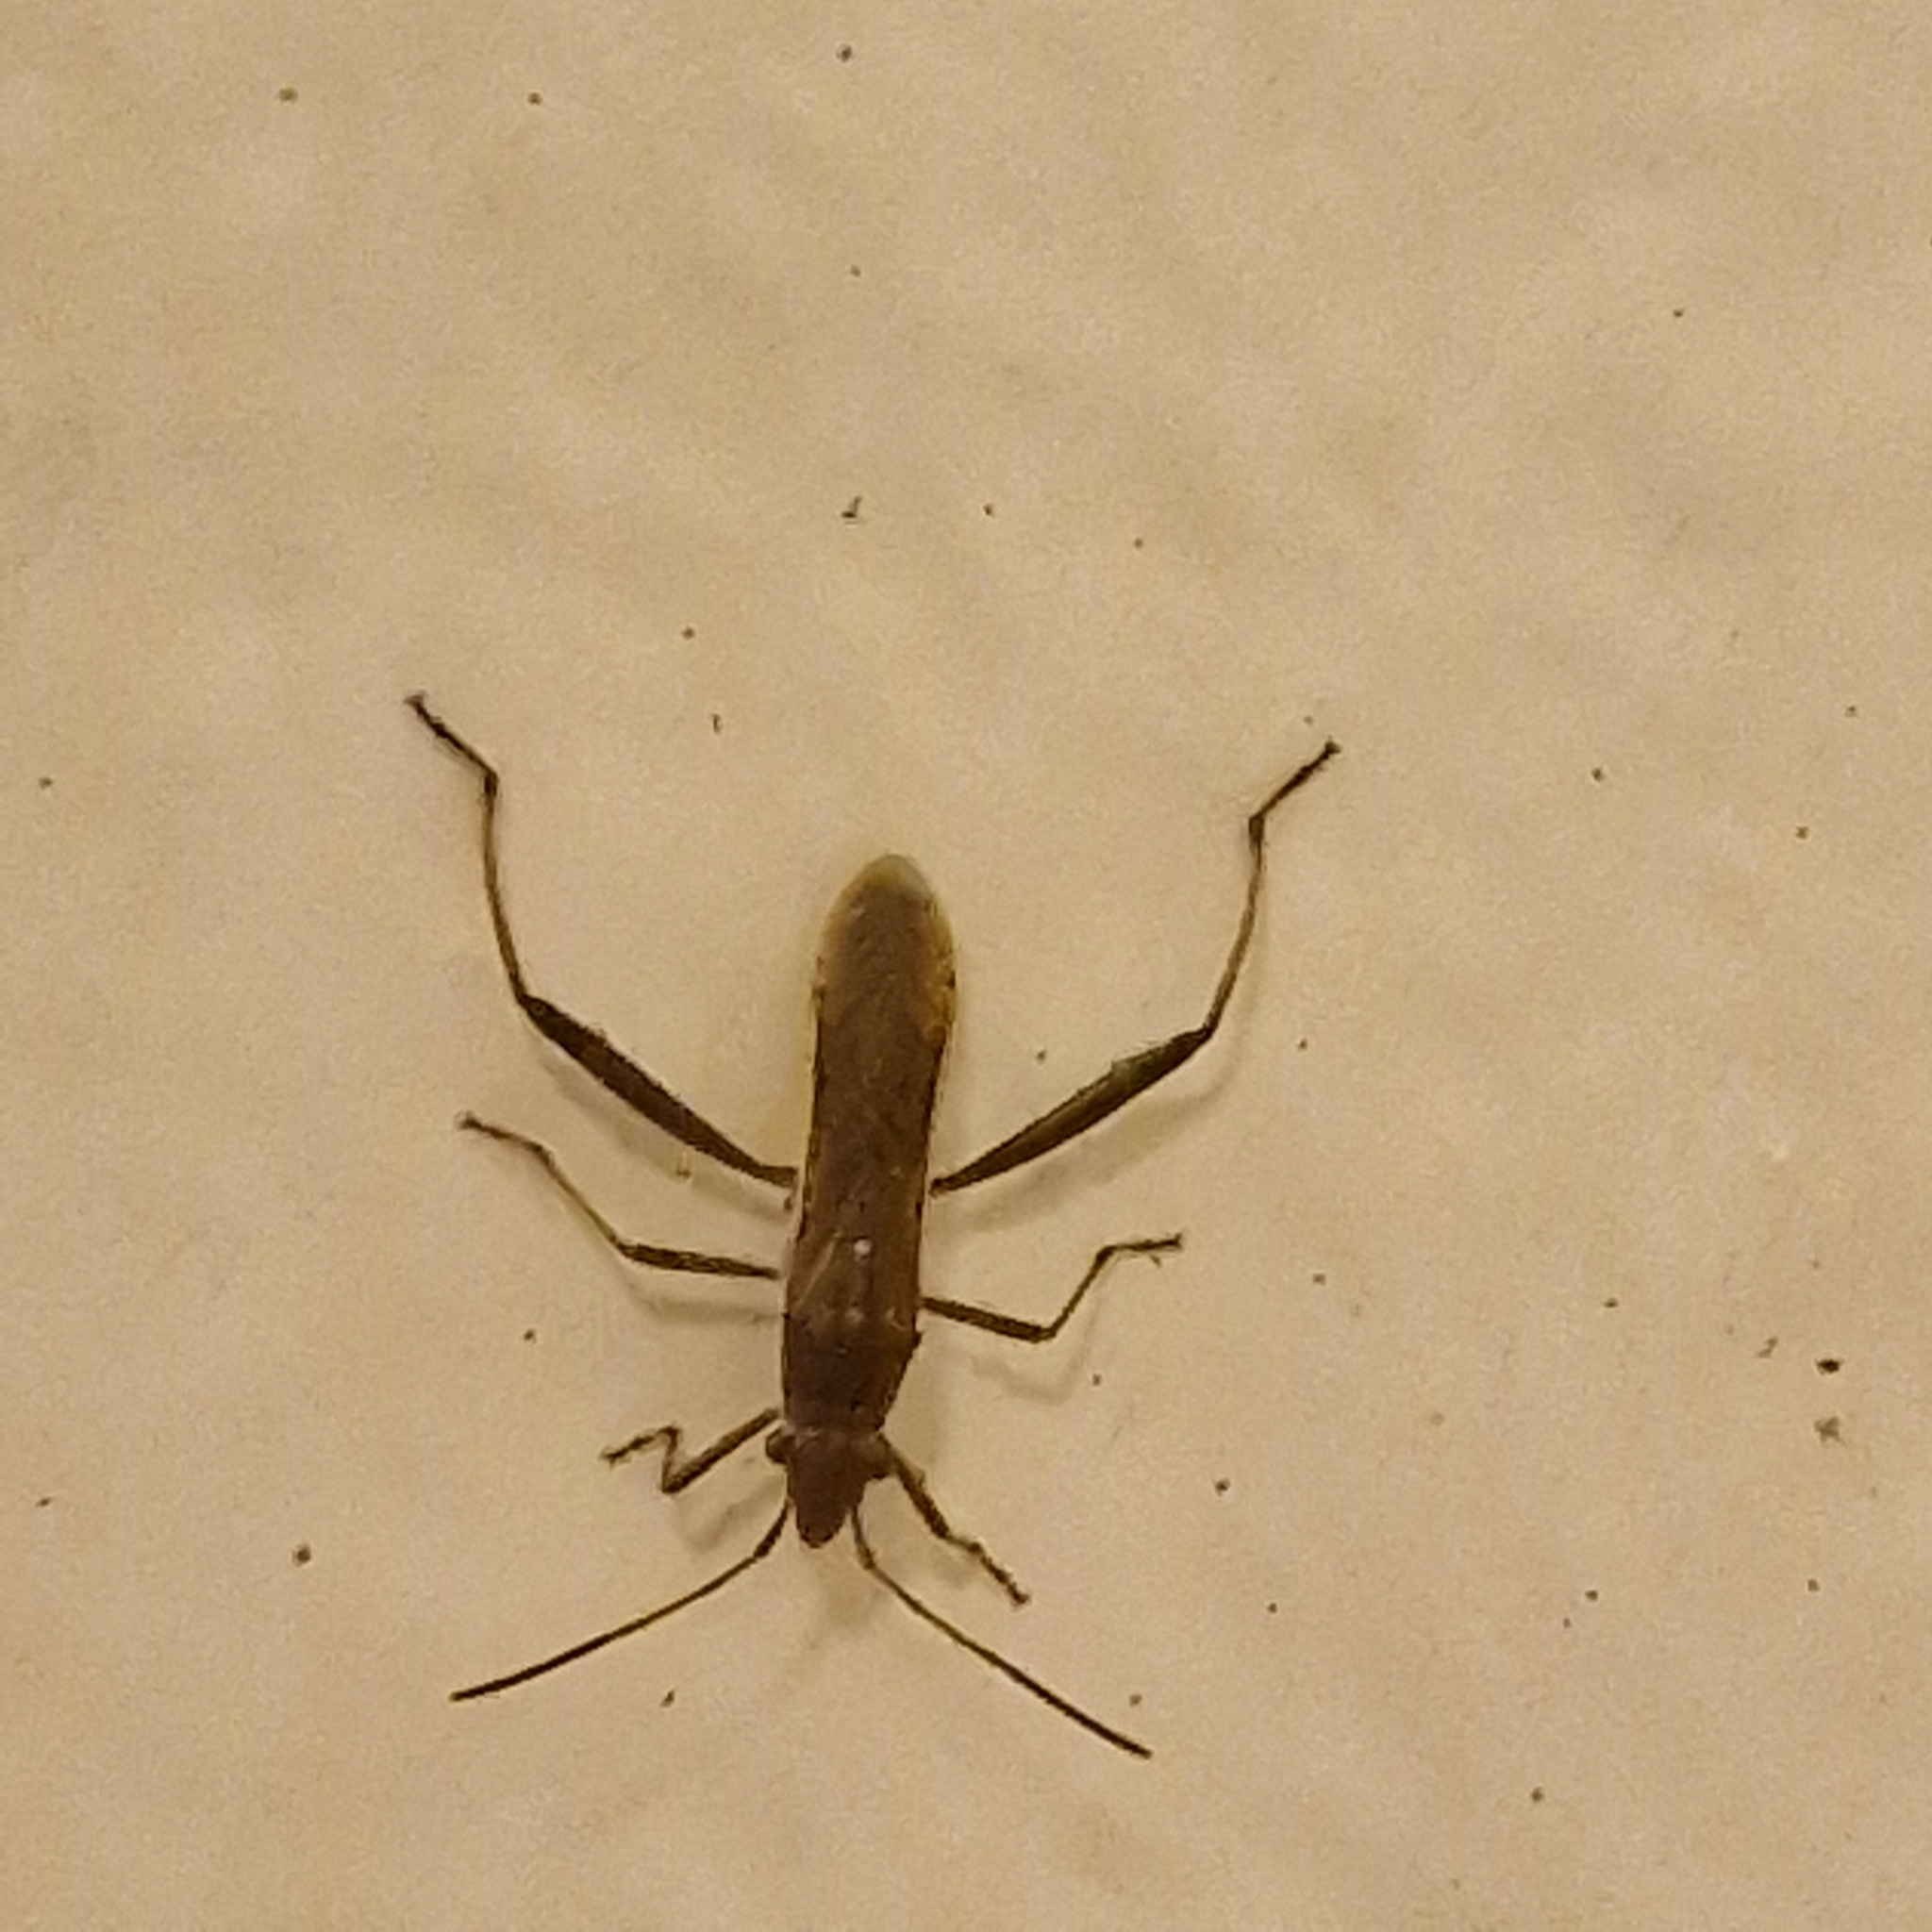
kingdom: Animalia
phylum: Arthropoda
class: Insecta
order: Hemiptera
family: Alydidae
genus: Melanacanthus
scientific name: Melanacanthus scutellaris
